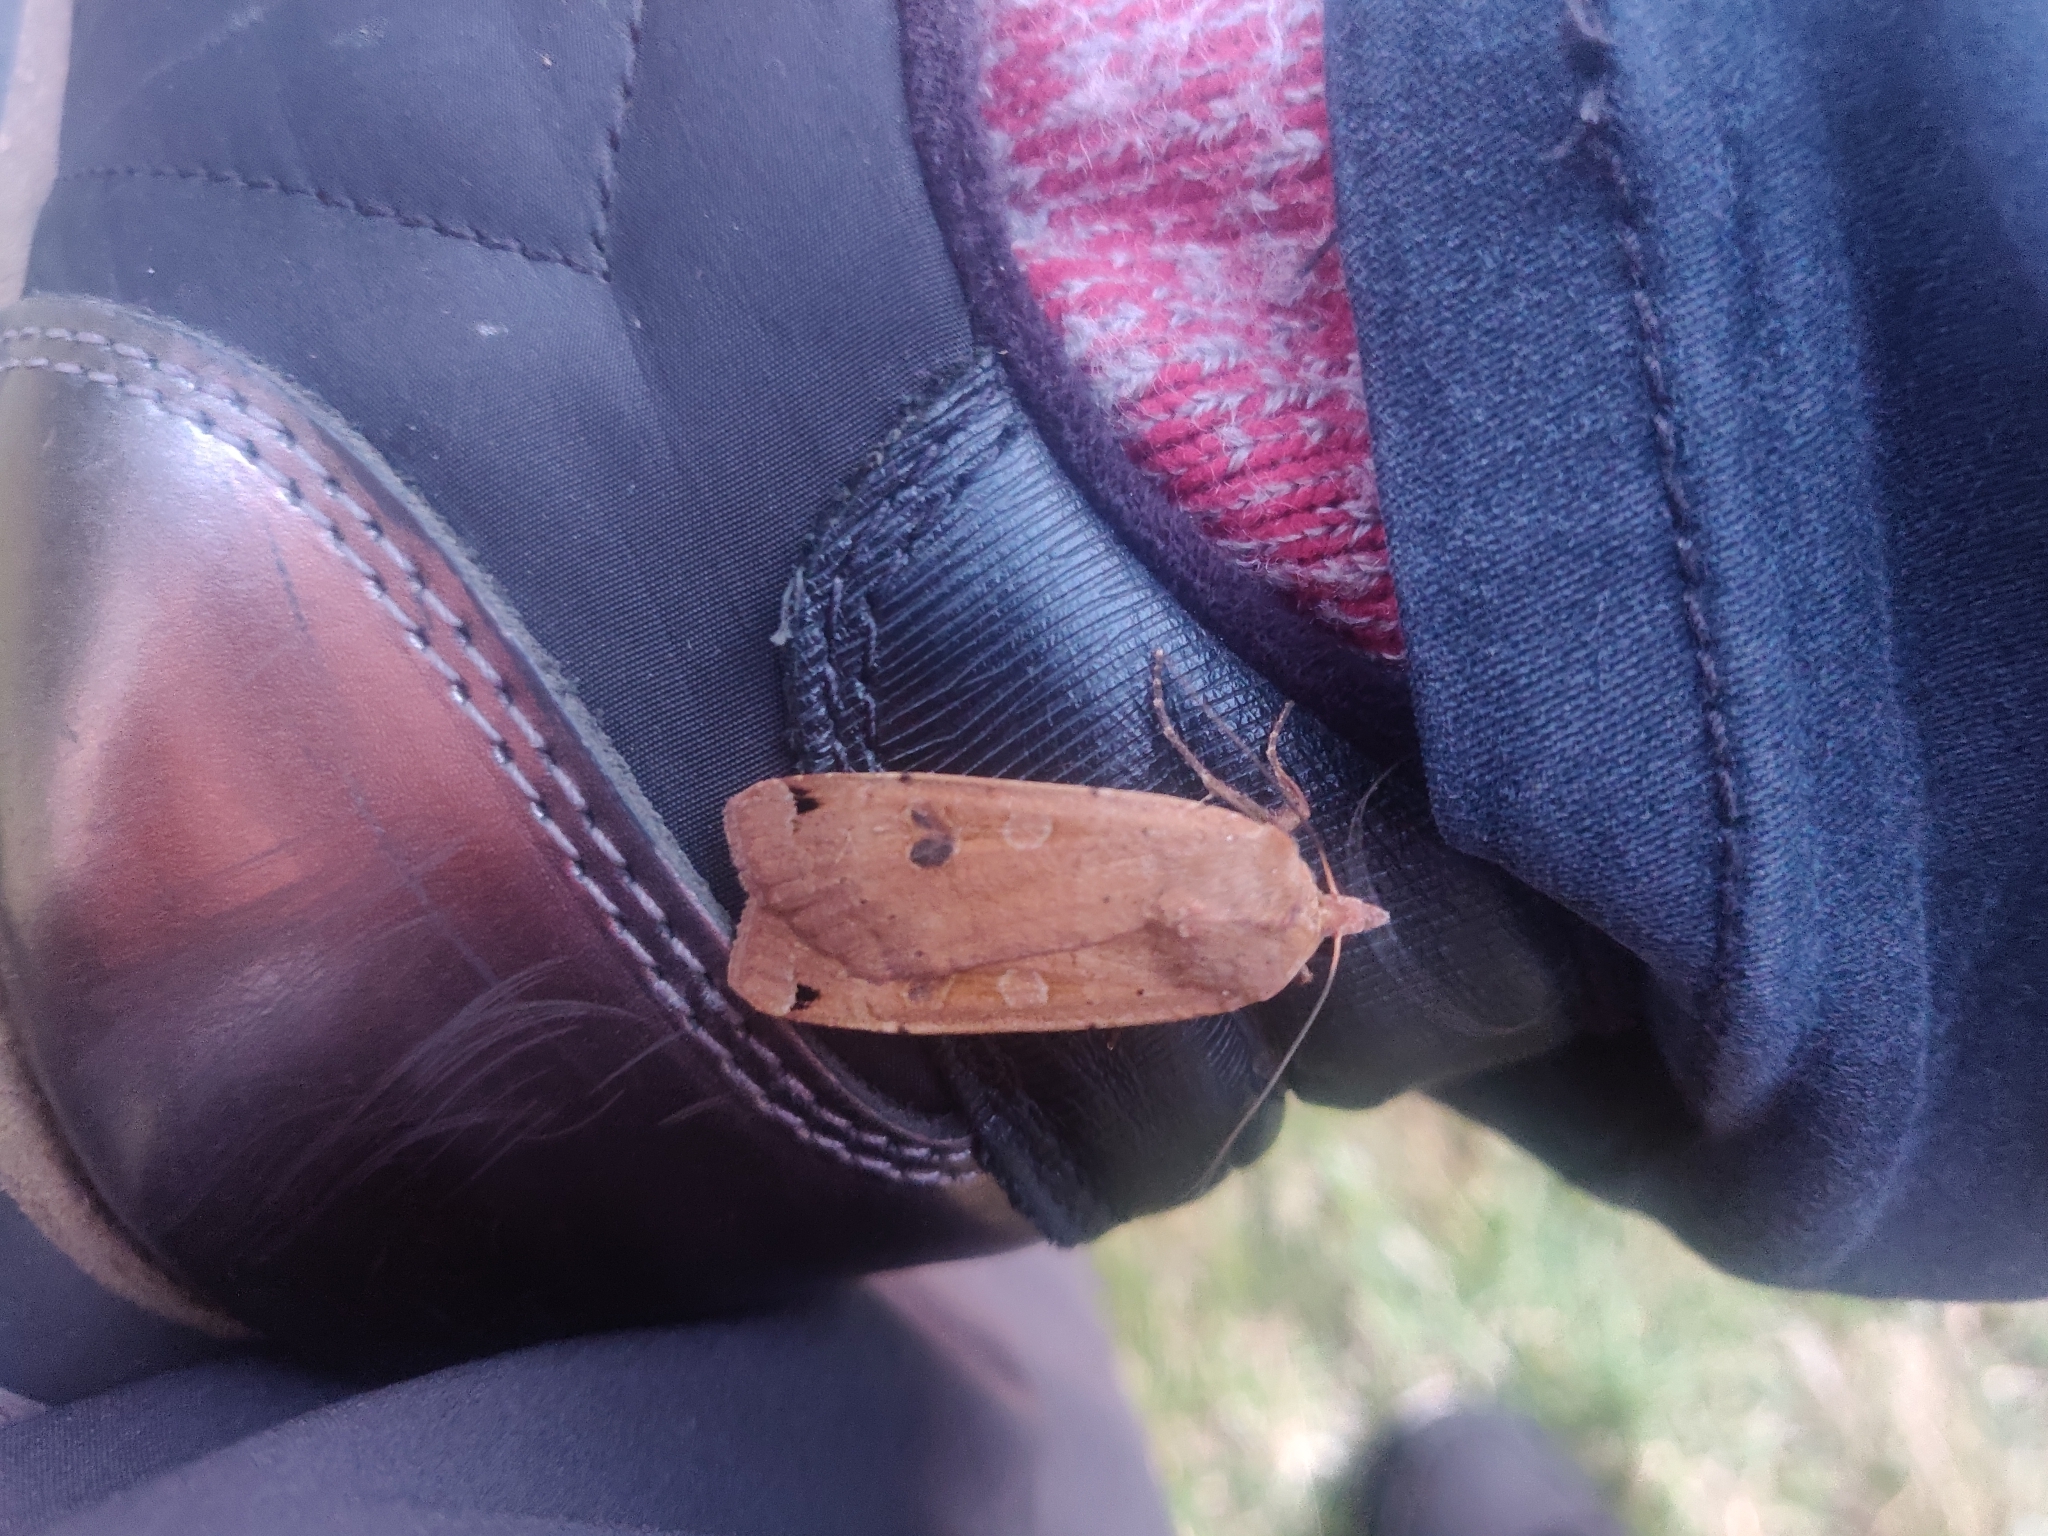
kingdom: Animalia
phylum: Arthropoda
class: Insecta
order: Lepidoptera
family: Noctuidae
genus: Noctua
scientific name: Noctua pronuba
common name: Large yellow underwing
